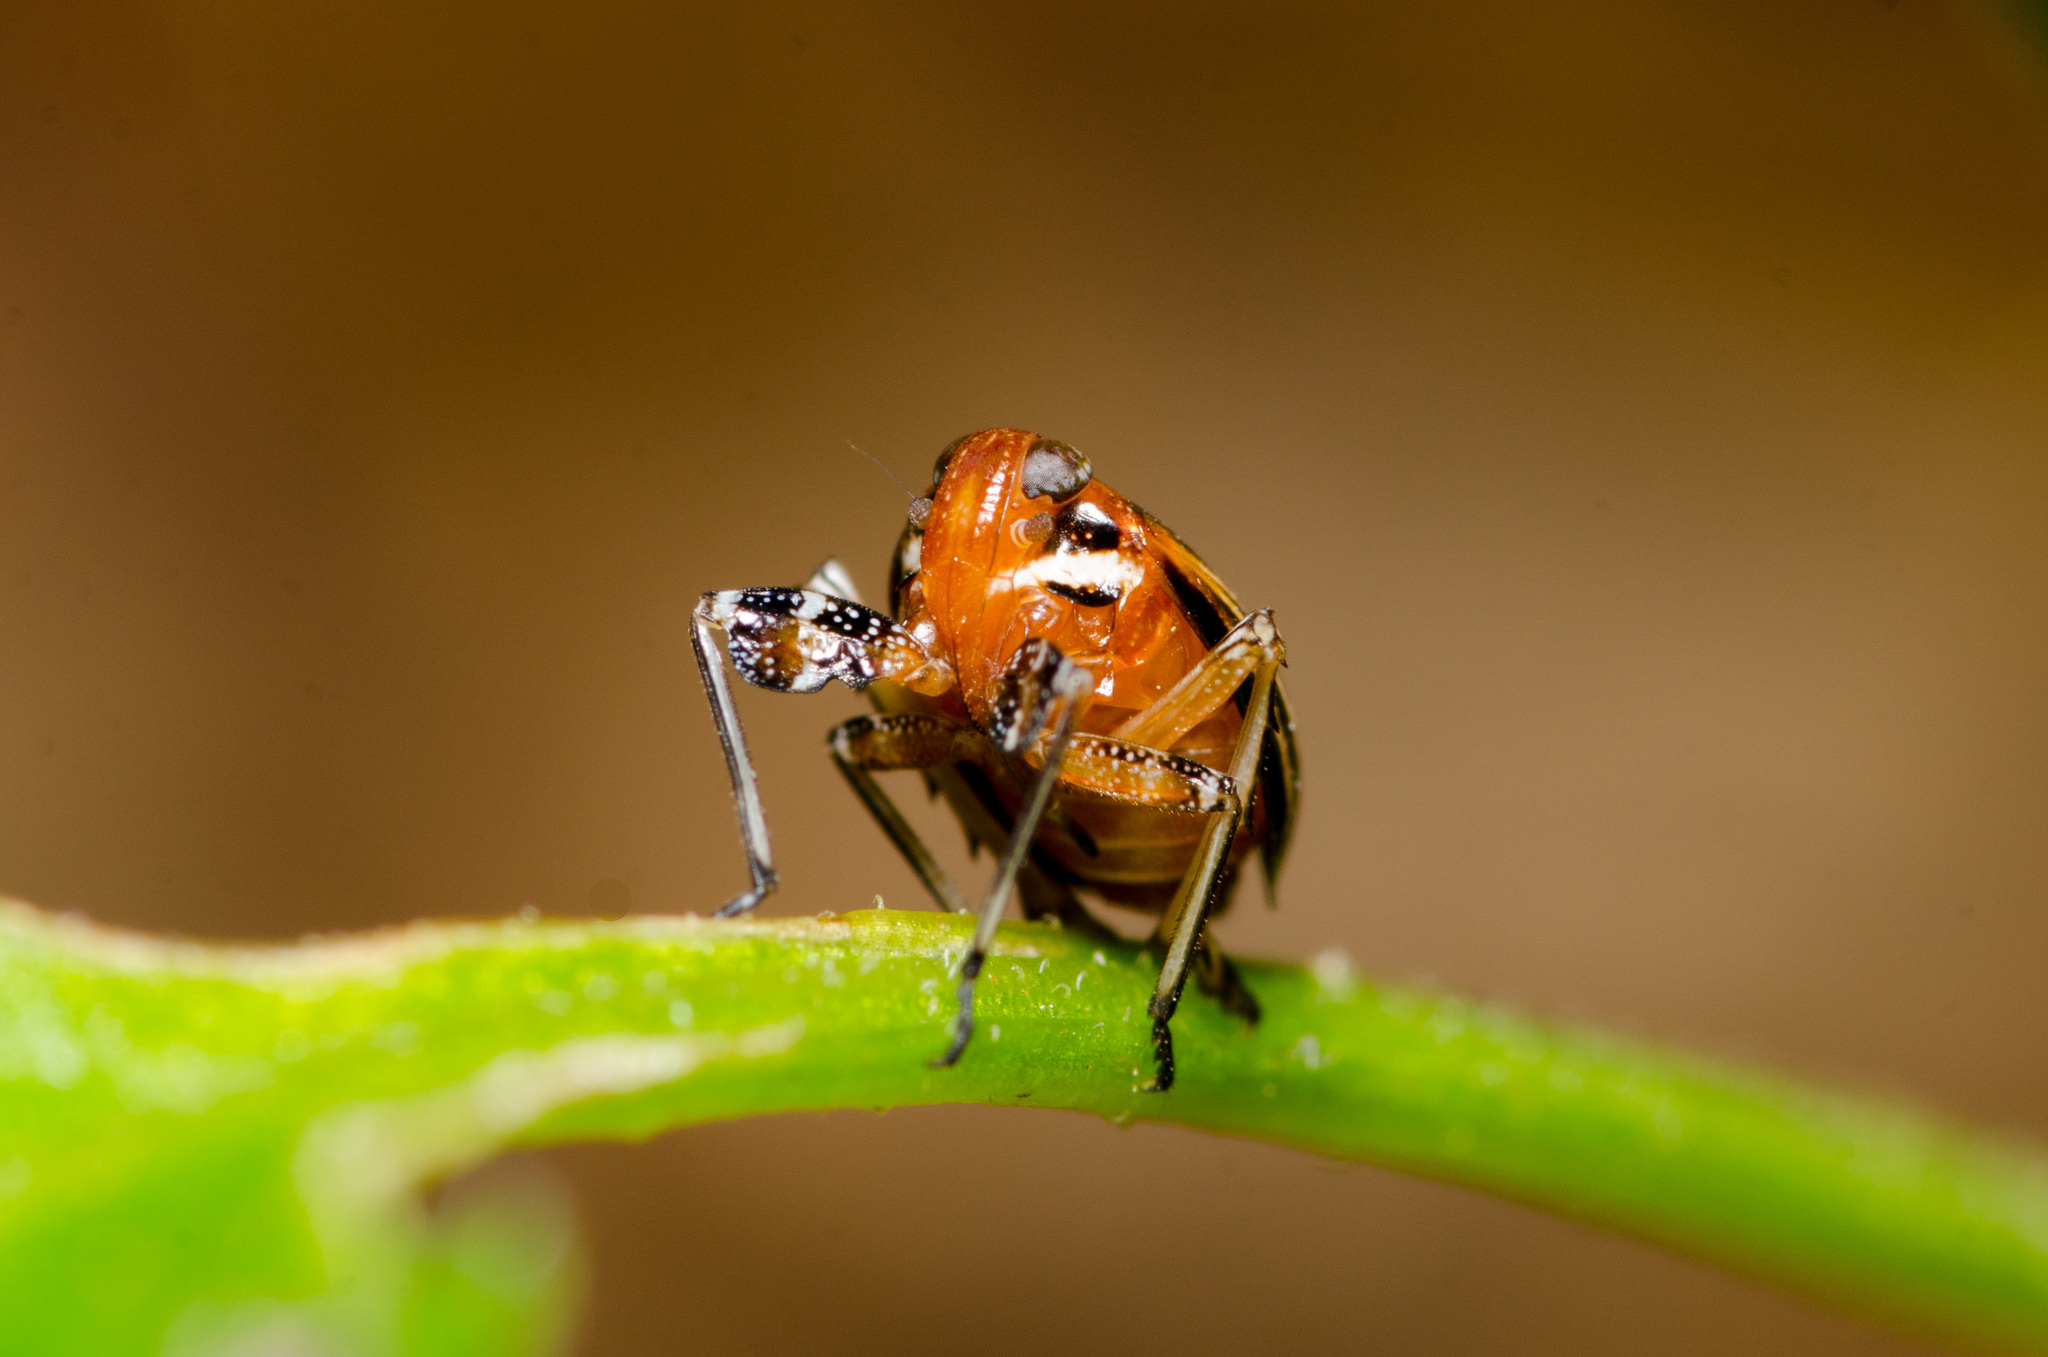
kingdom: Animalia
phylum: Arthropoda
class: Insecta
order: Hemiptera
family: Achilidae
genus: Isodaemon
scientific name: Isodaemon orontes
